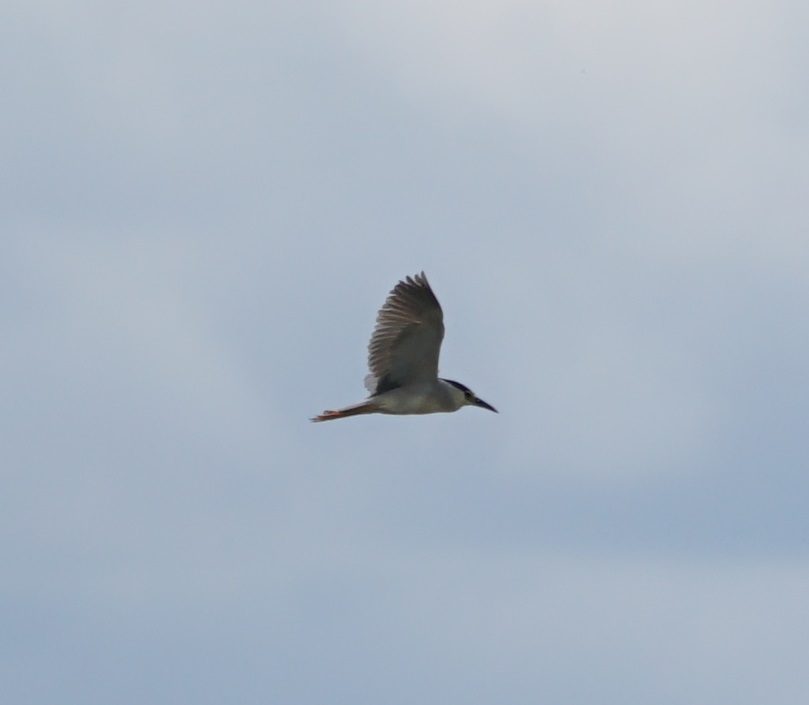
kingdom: Animalia
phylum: Chordata
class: Aves
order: Pelecaniformes
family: Ardeidae
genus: Nycticorax
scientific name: Nycticorax nycticorax
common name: Black-crowned night heron
